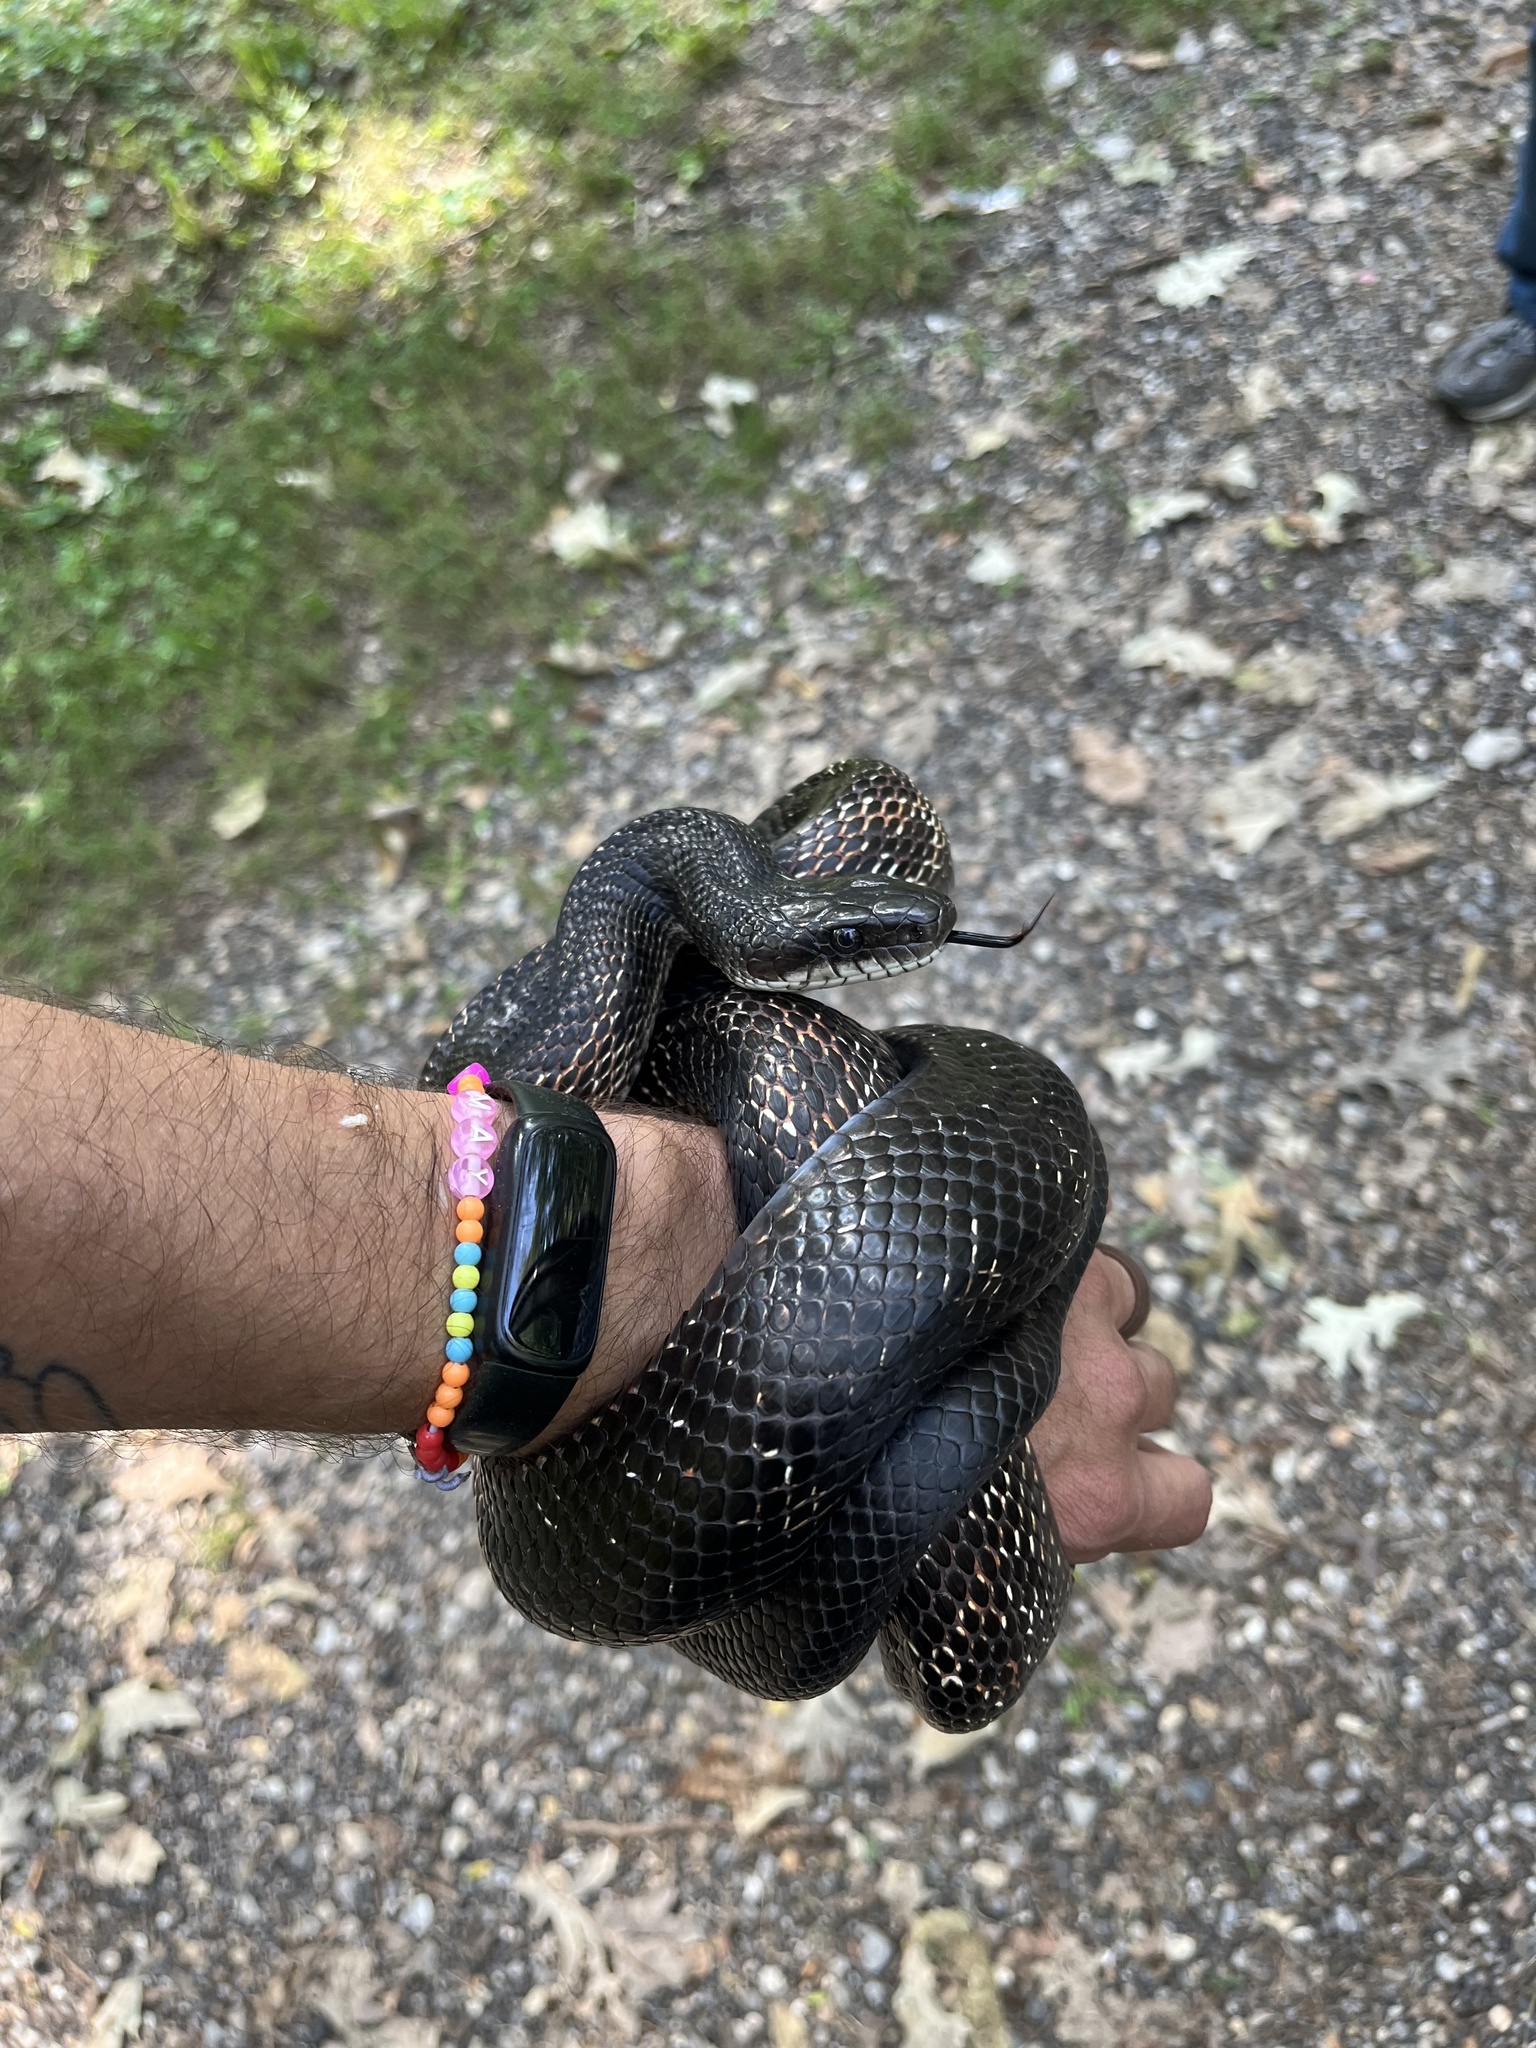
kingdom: Animalia
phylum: Chordata
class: Squamata
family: Colubridae
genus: Pantherophis
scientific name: Pantherophis spiloides
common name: Gray rat snake
